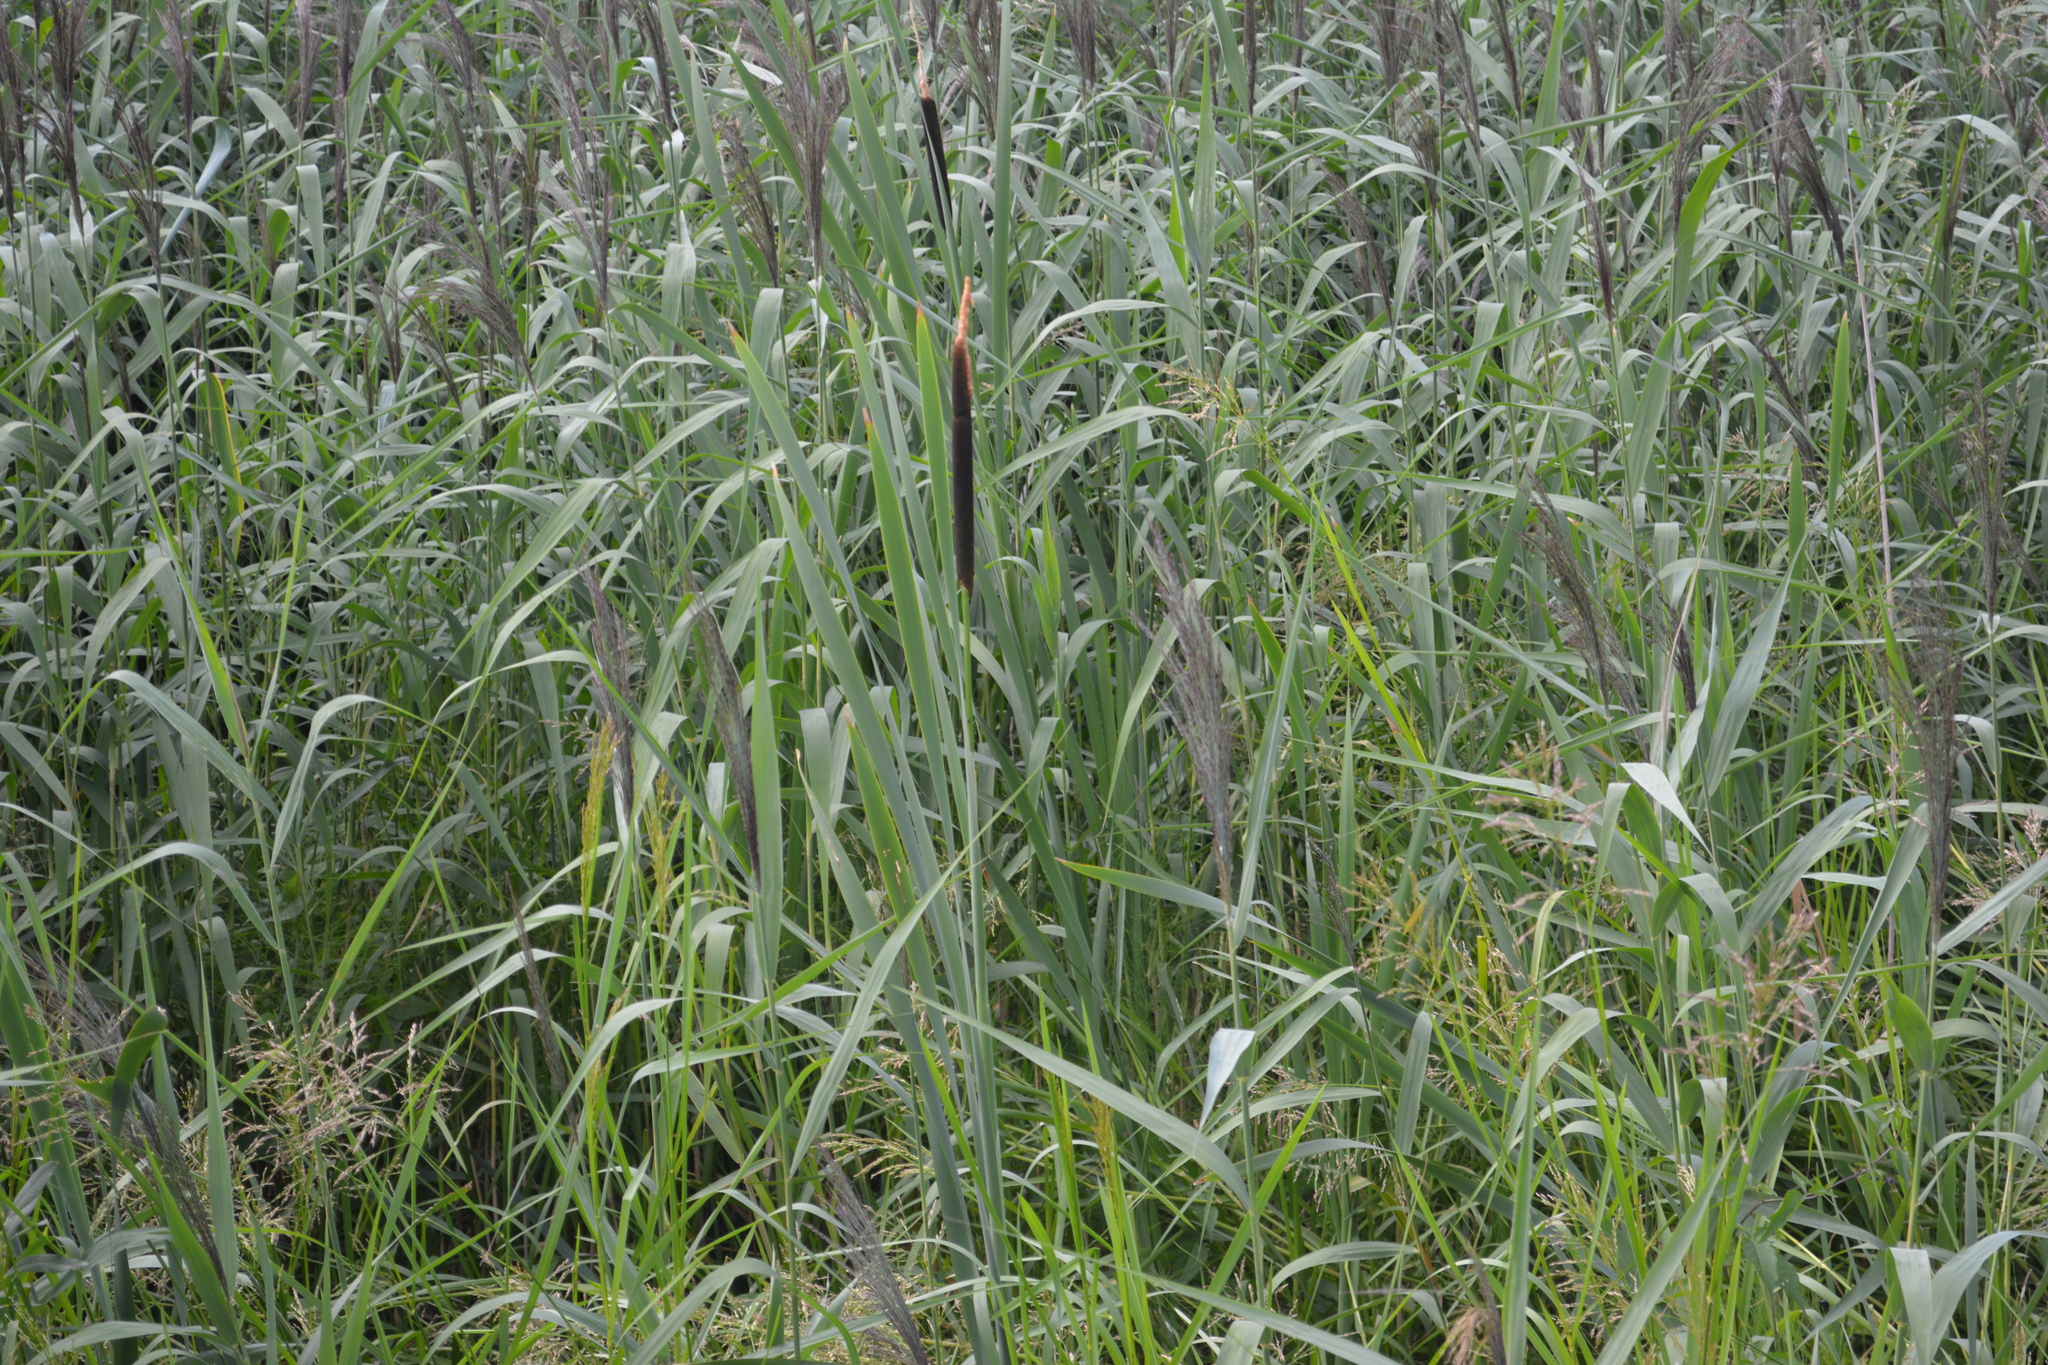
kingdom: Plantae
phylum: Tracheophyta
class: Liliopsida
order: Poales
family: Typhaceae
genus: Typha
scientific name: Typha latifolia
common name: Broadleaf cattail
